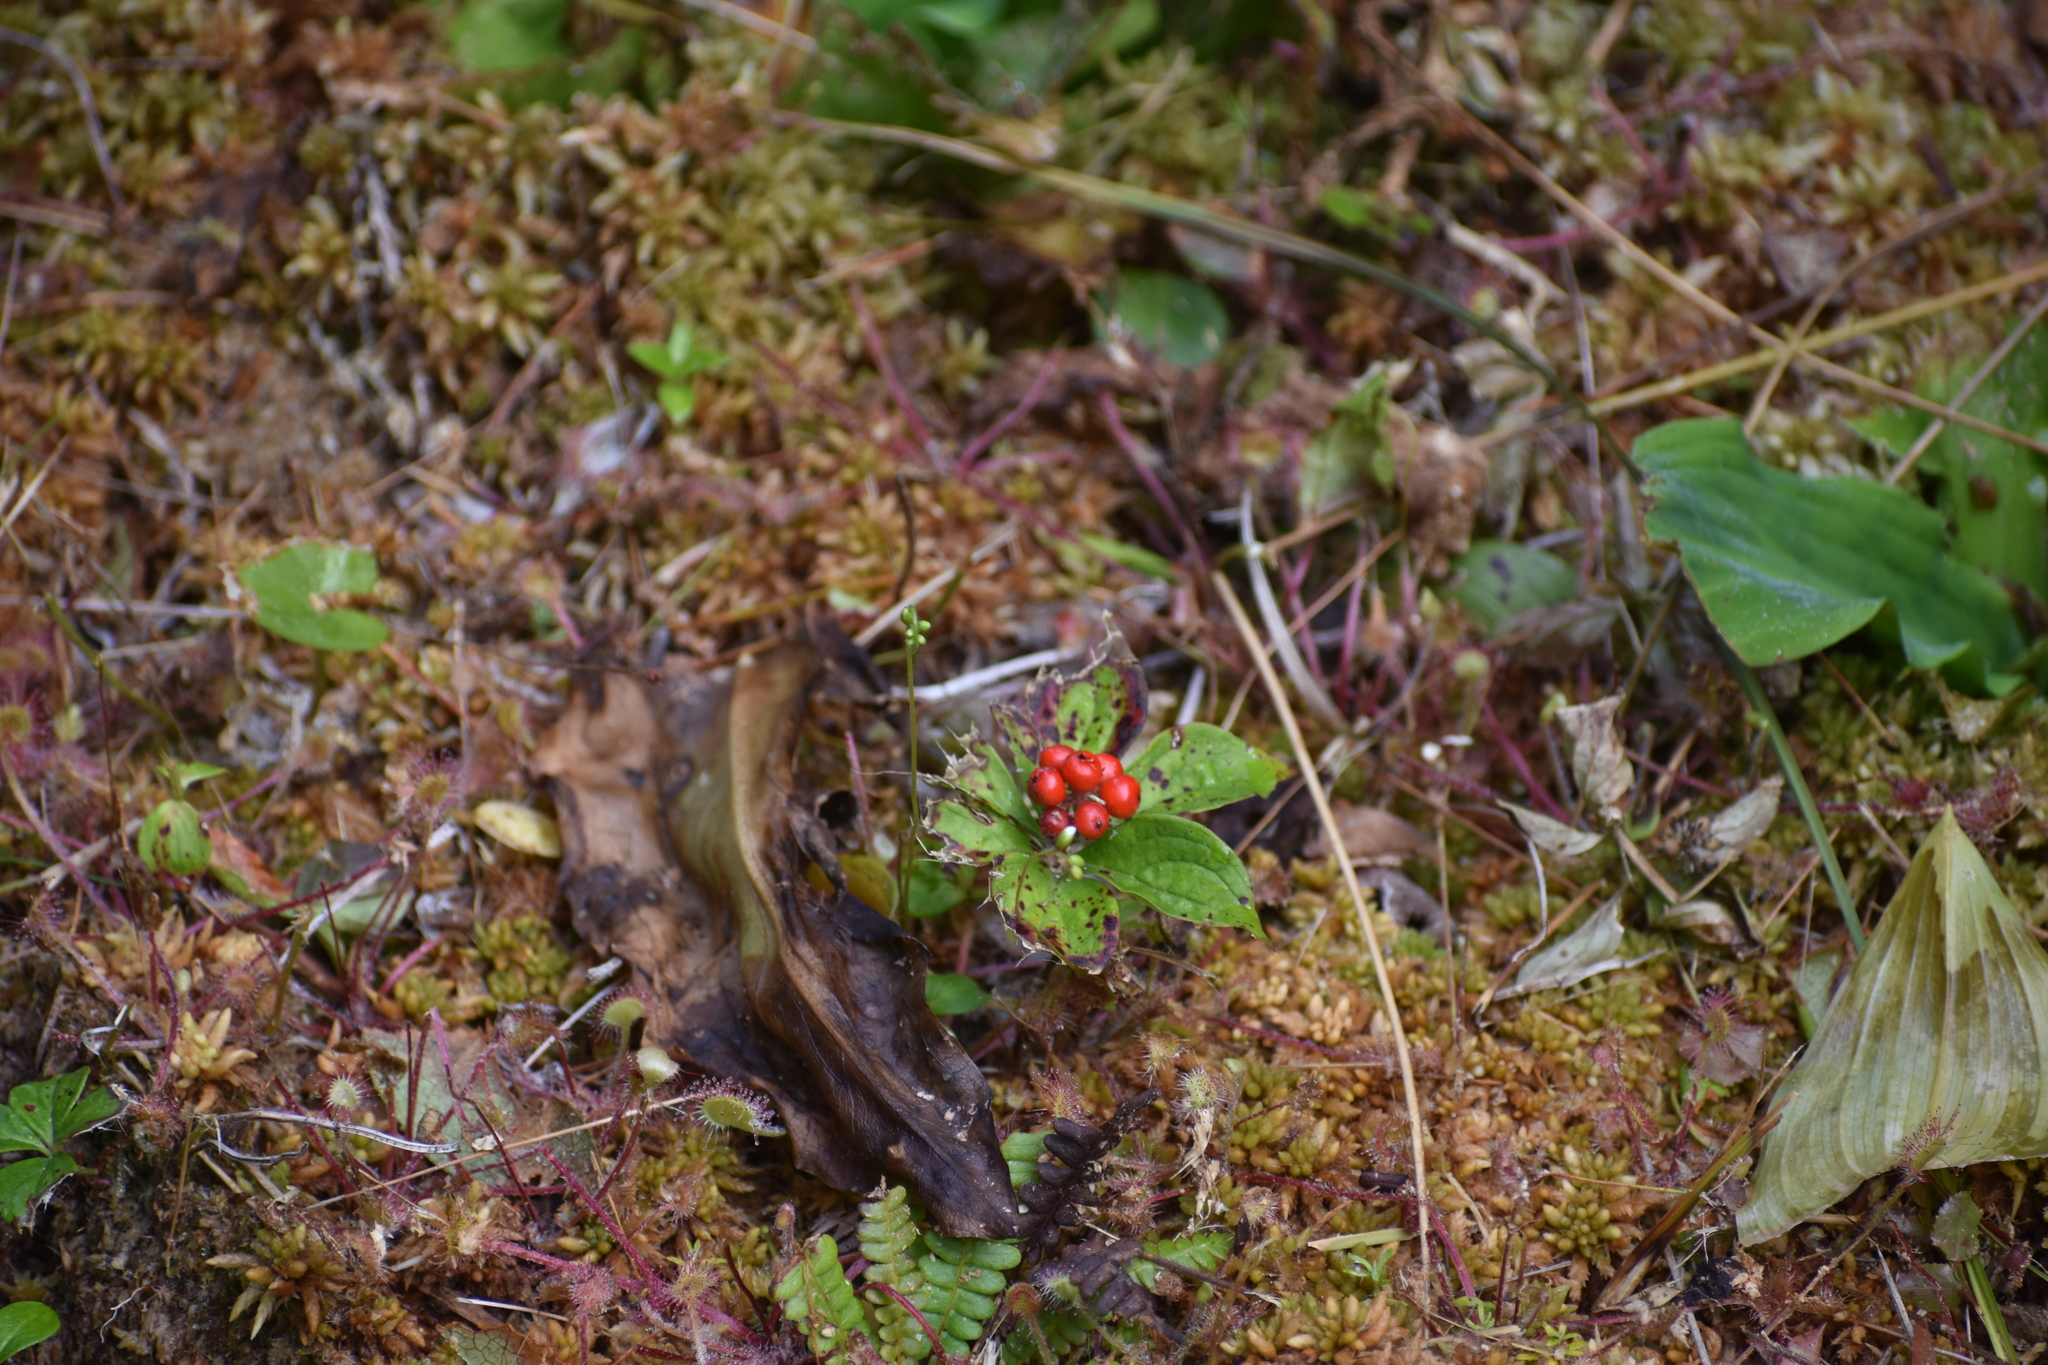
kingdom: Plantae
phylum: Tracheophyta
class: Magnoliopsida
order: Cornales
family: Cornaceae
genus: Cornus
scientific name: Cornus unalaschkensis
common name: Alaska bunchberry
